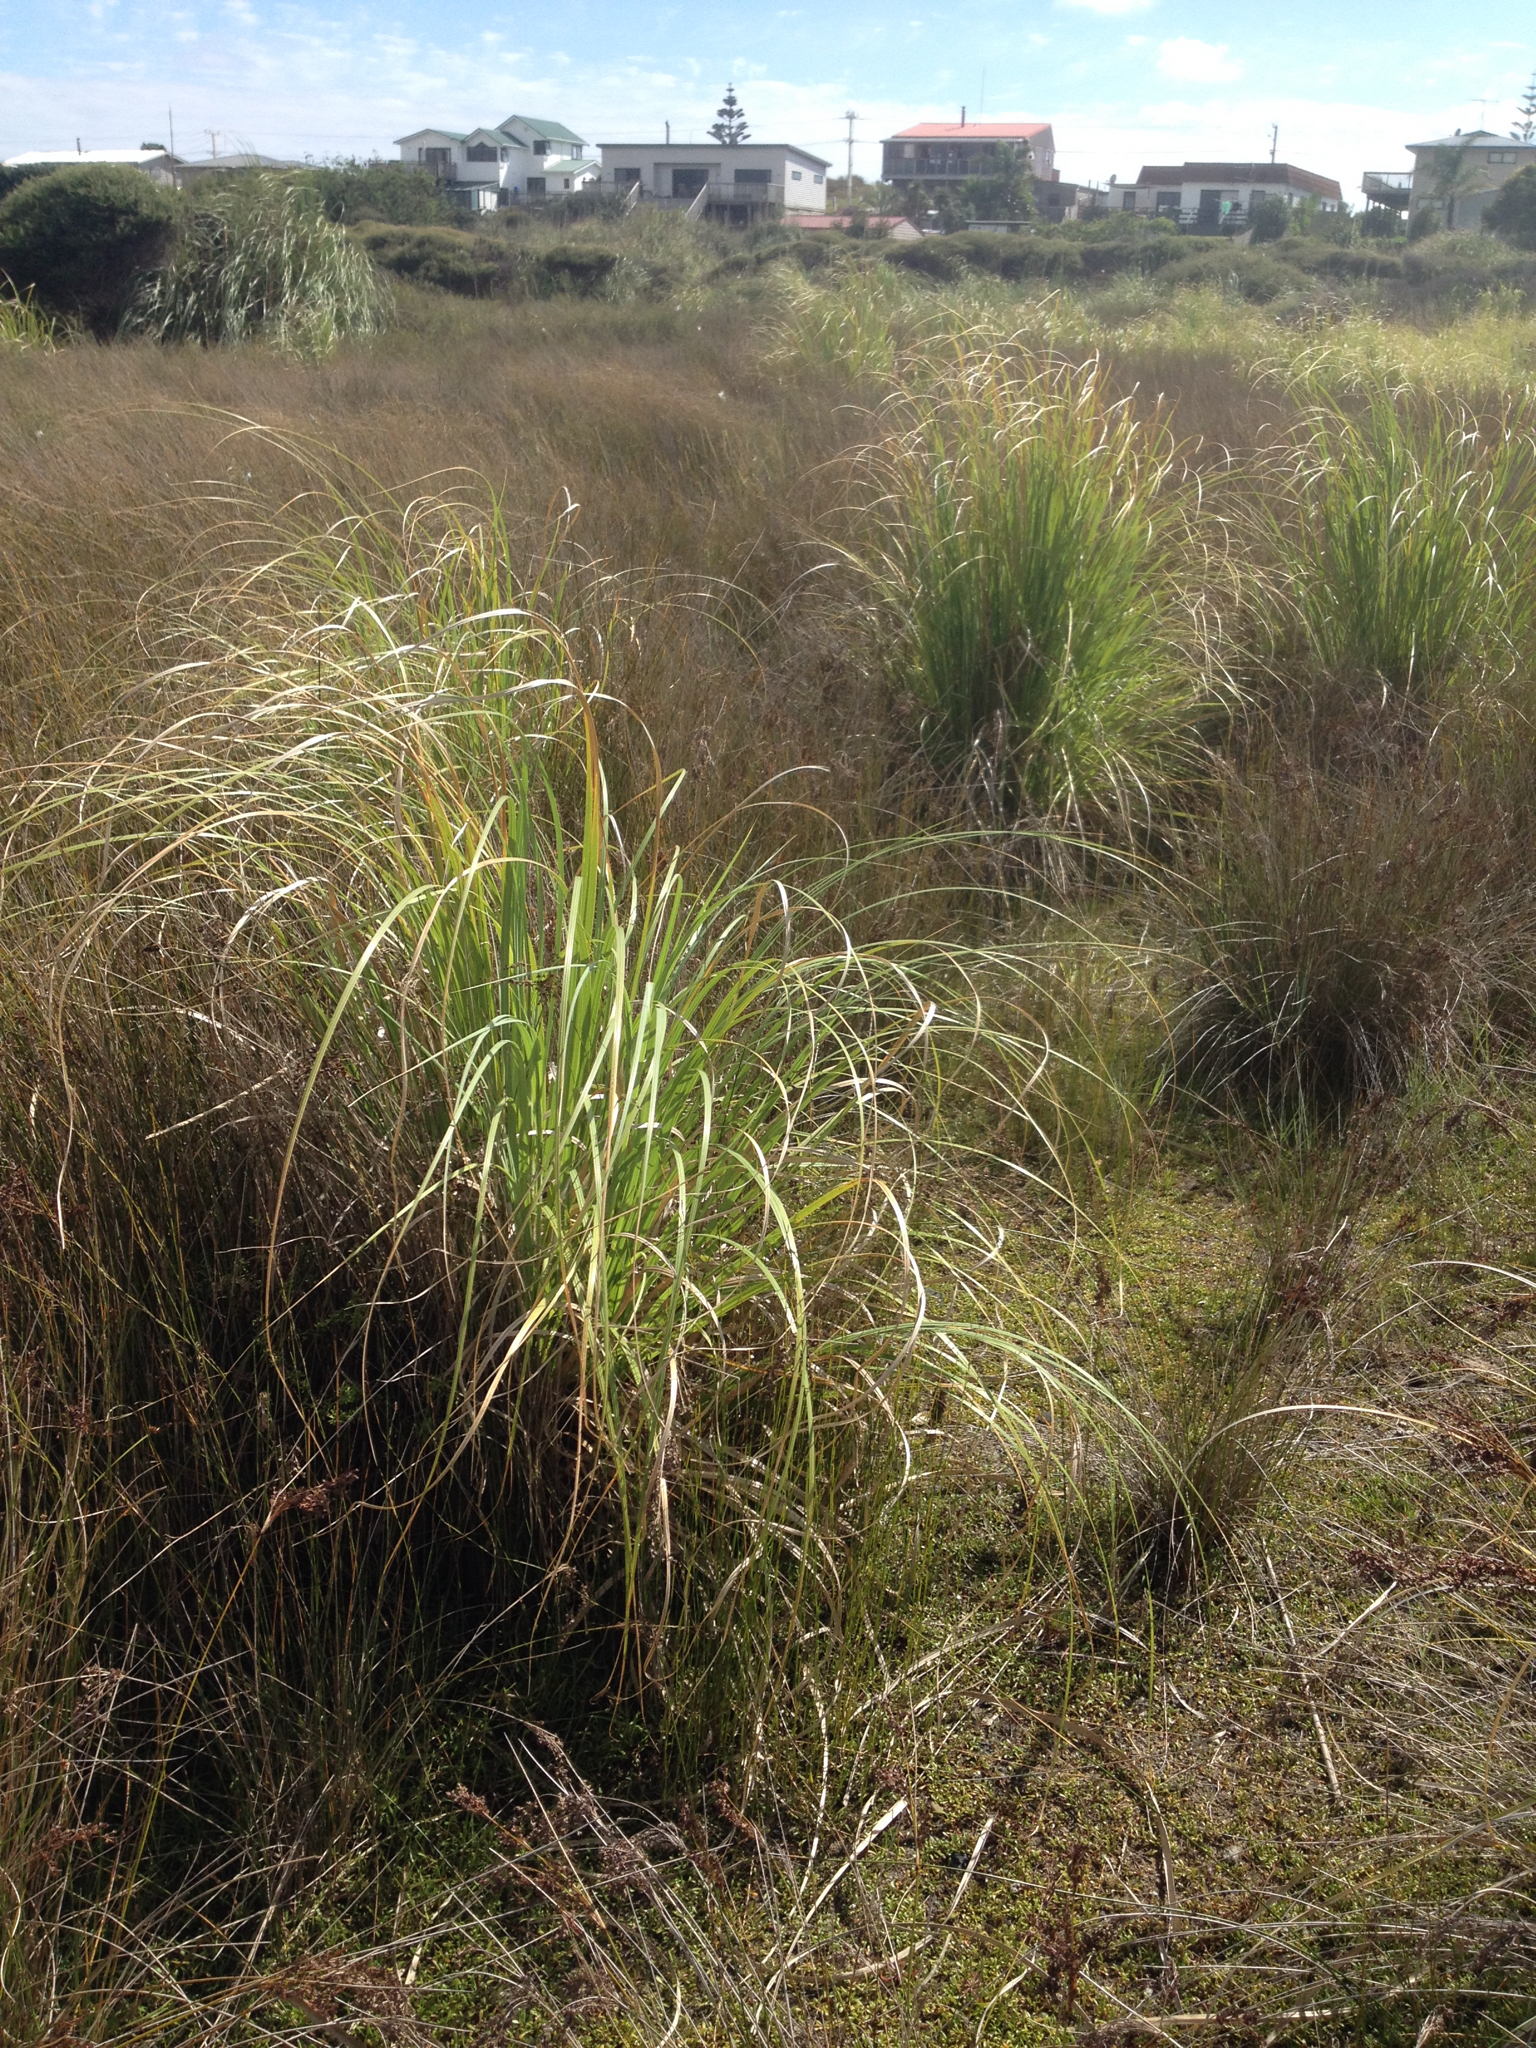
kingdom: Plantae
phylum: Tracheophyta
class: Liliopsida
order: Poales
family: Poaceae
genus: Cortaderia
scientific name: Cortaderia selloana
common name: Uruguayan pampas grass
